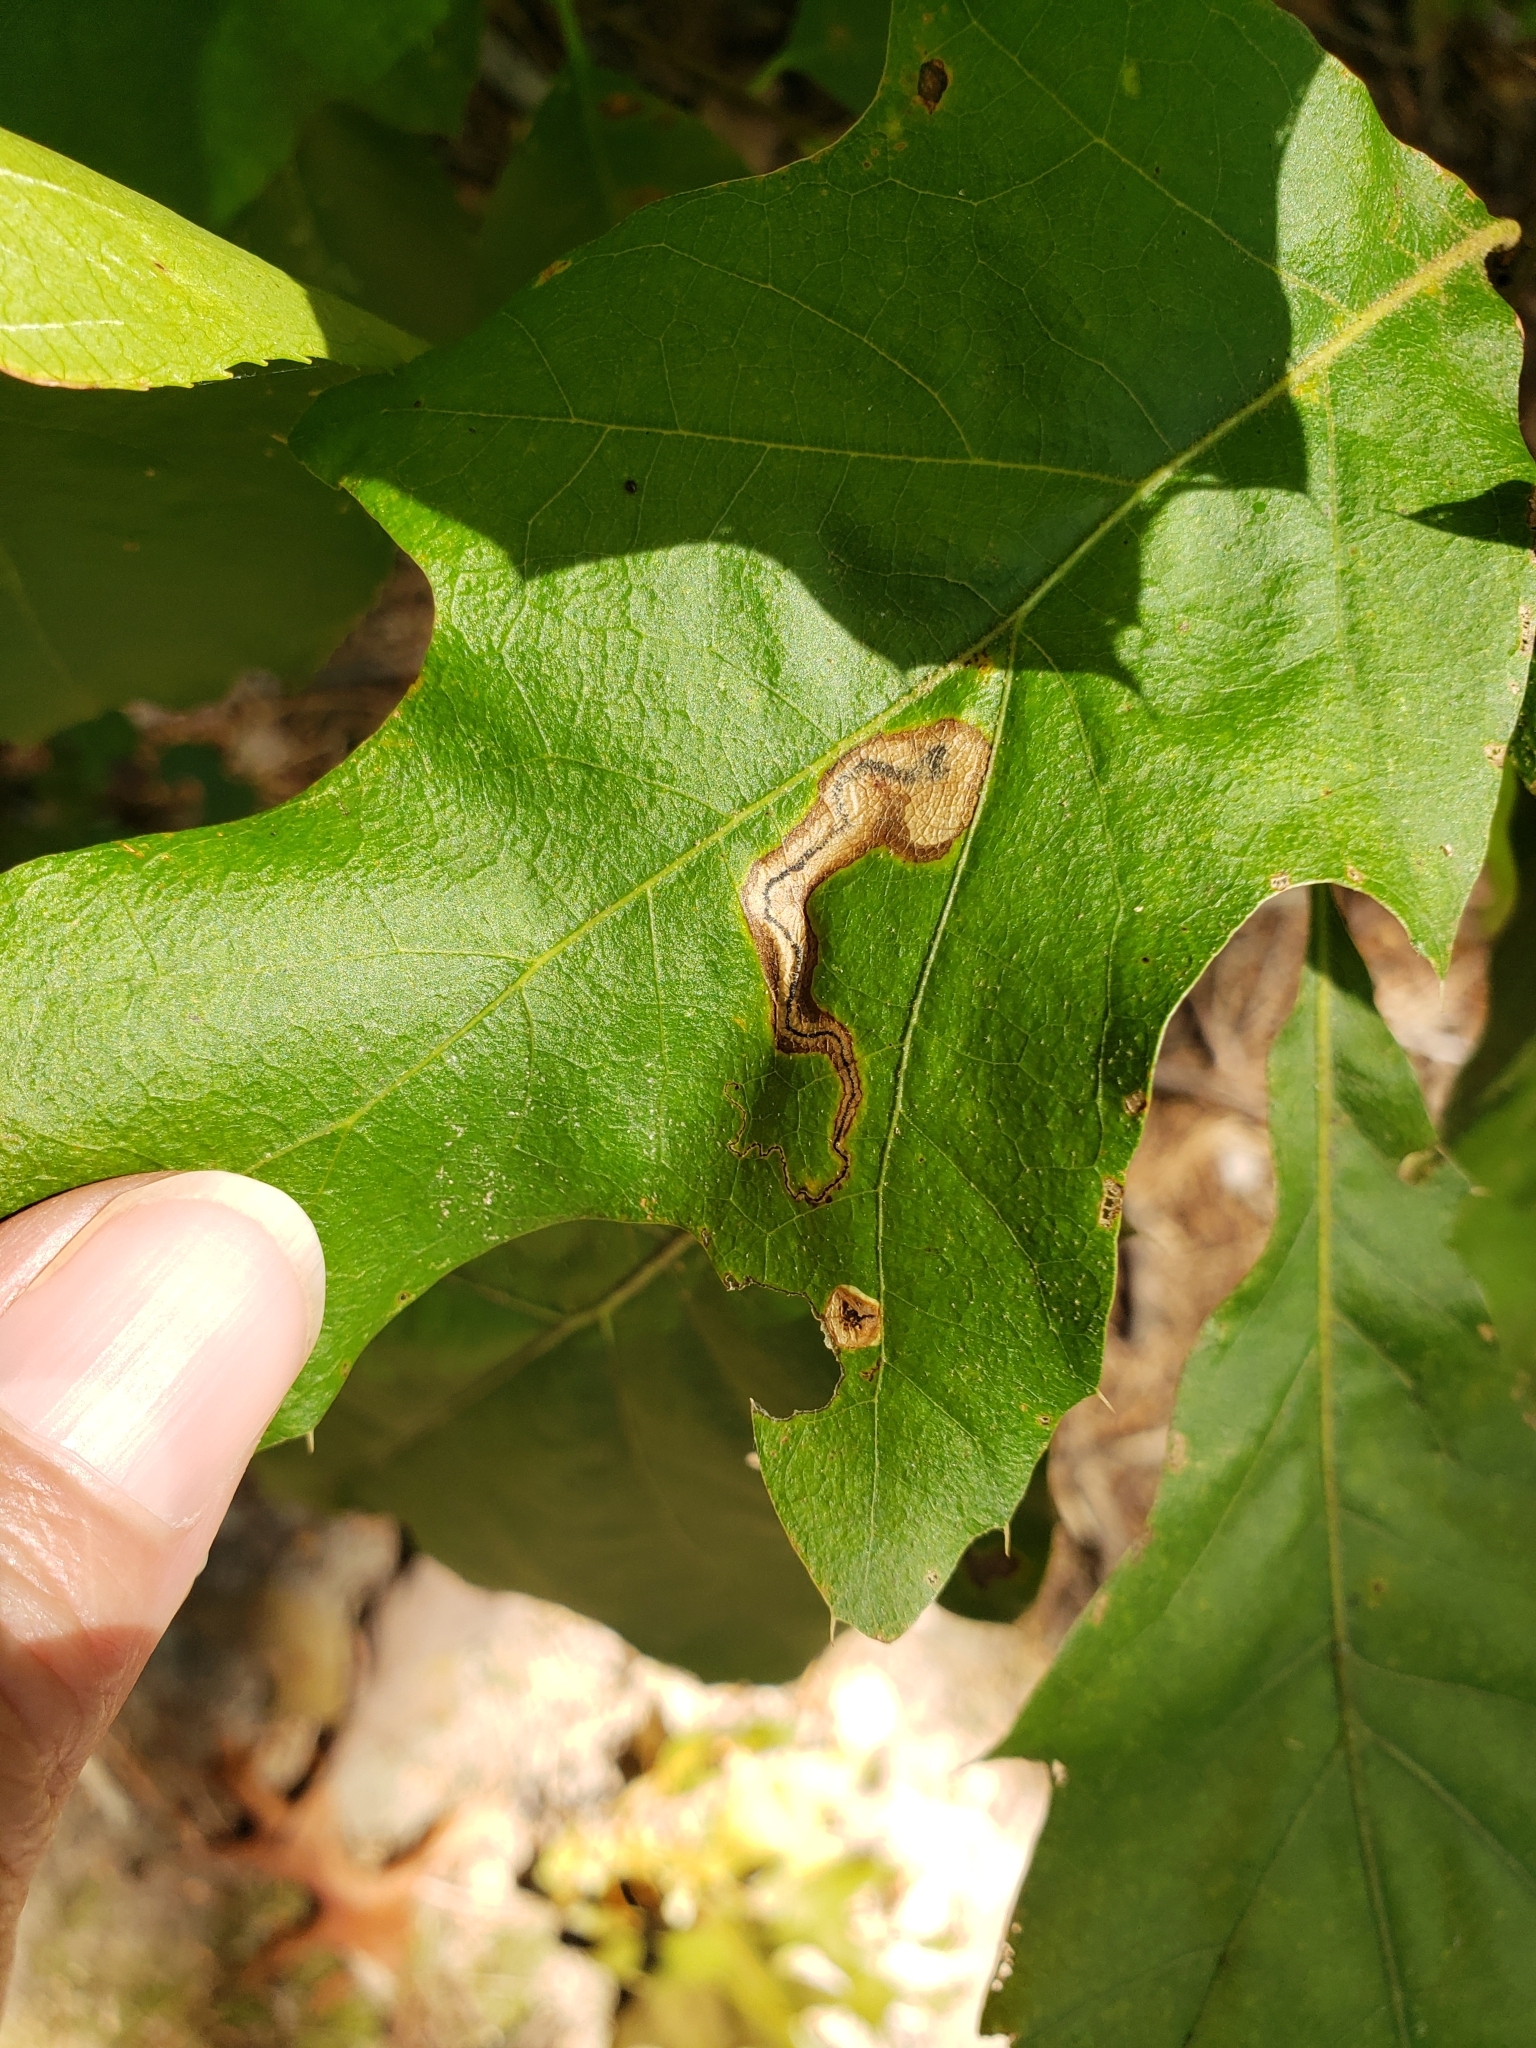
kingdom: Animalia
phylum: Arthropoda
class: Insecta
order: Lepidoptera
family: Nepticulidae
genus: Stigmella
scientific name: Stigmella quercipulchella
